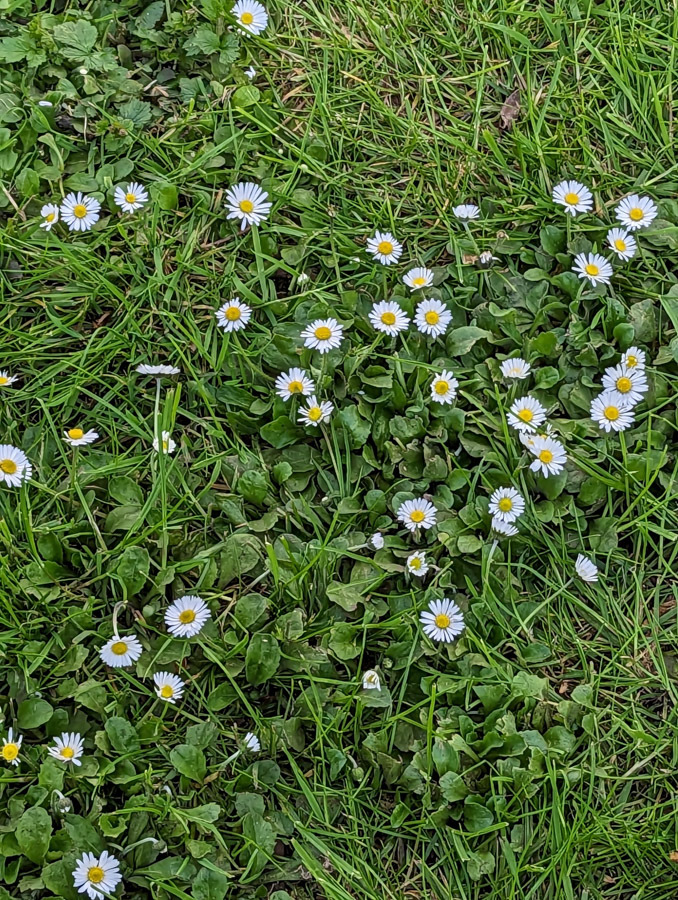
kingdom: Plantae
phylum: Tracheophyta
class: Magnoliopsida
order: Asterales
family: Asteraceae
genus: Bellis
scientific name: Bellis perennis
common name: Lawndaisy
